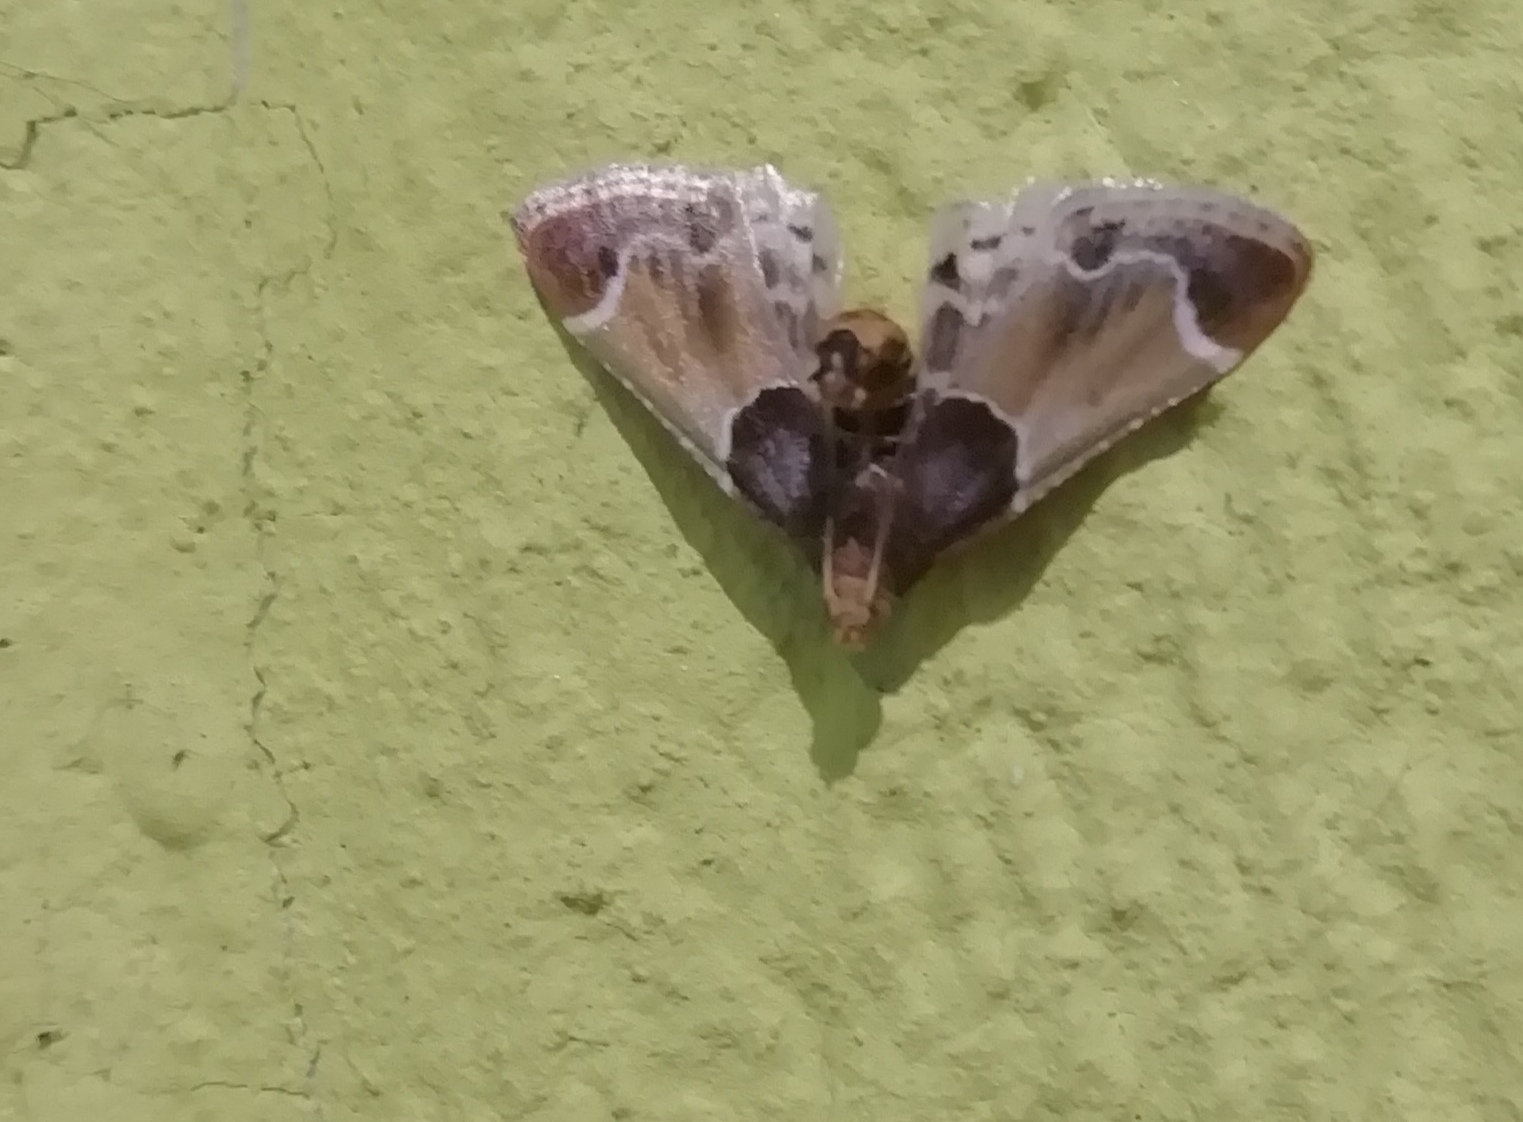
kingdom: Animalia
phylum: Arthropoda
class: Insecta
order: Lepidoptera
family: Pyralidae
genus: Pyralis
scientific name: Pyralis farinalis
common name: Meal moth
